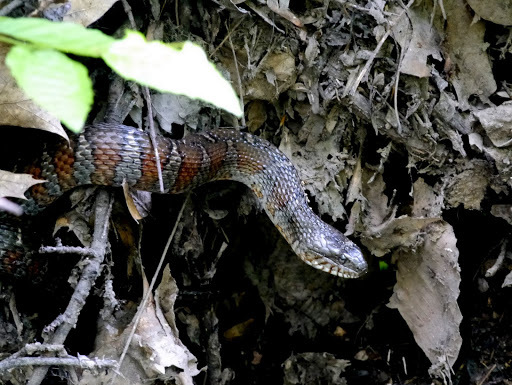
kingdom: Animalia
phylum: Chordata
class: Squamata
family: Colubridae
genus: Nerodia
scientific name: Nerodia sipedon
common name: Northern water snake
